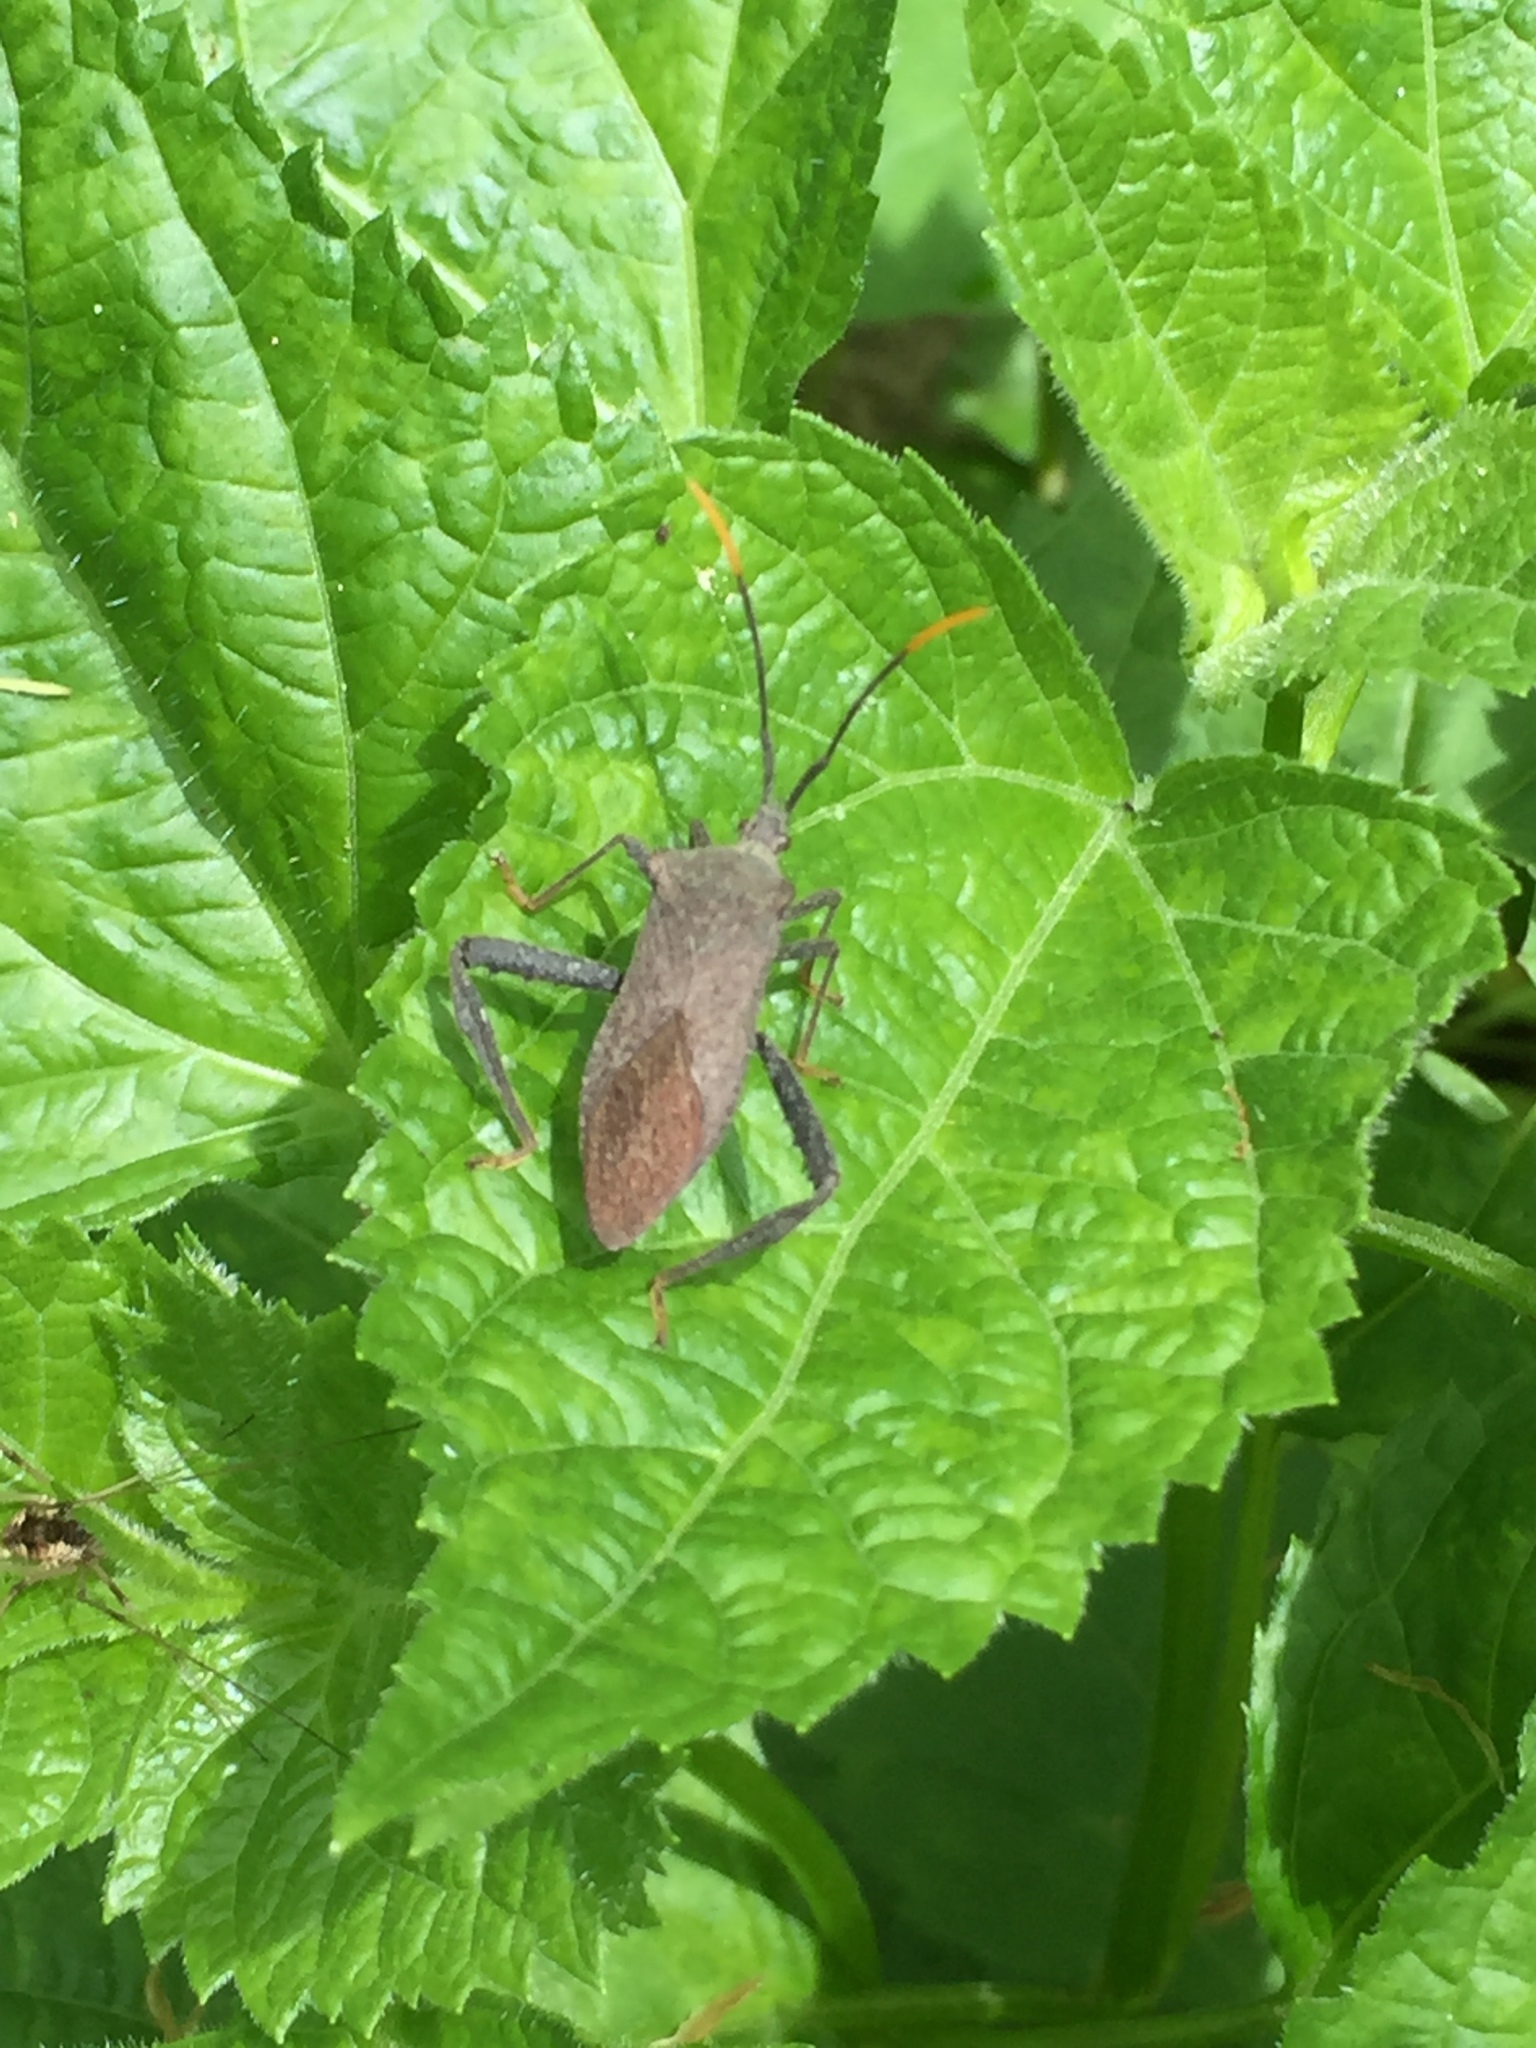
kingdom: Animalia
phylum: Arthropoda
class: Insecta
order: Hemiptera
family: Coreidae
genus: Acanthocephala
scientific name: Acanthocephala terminalis
